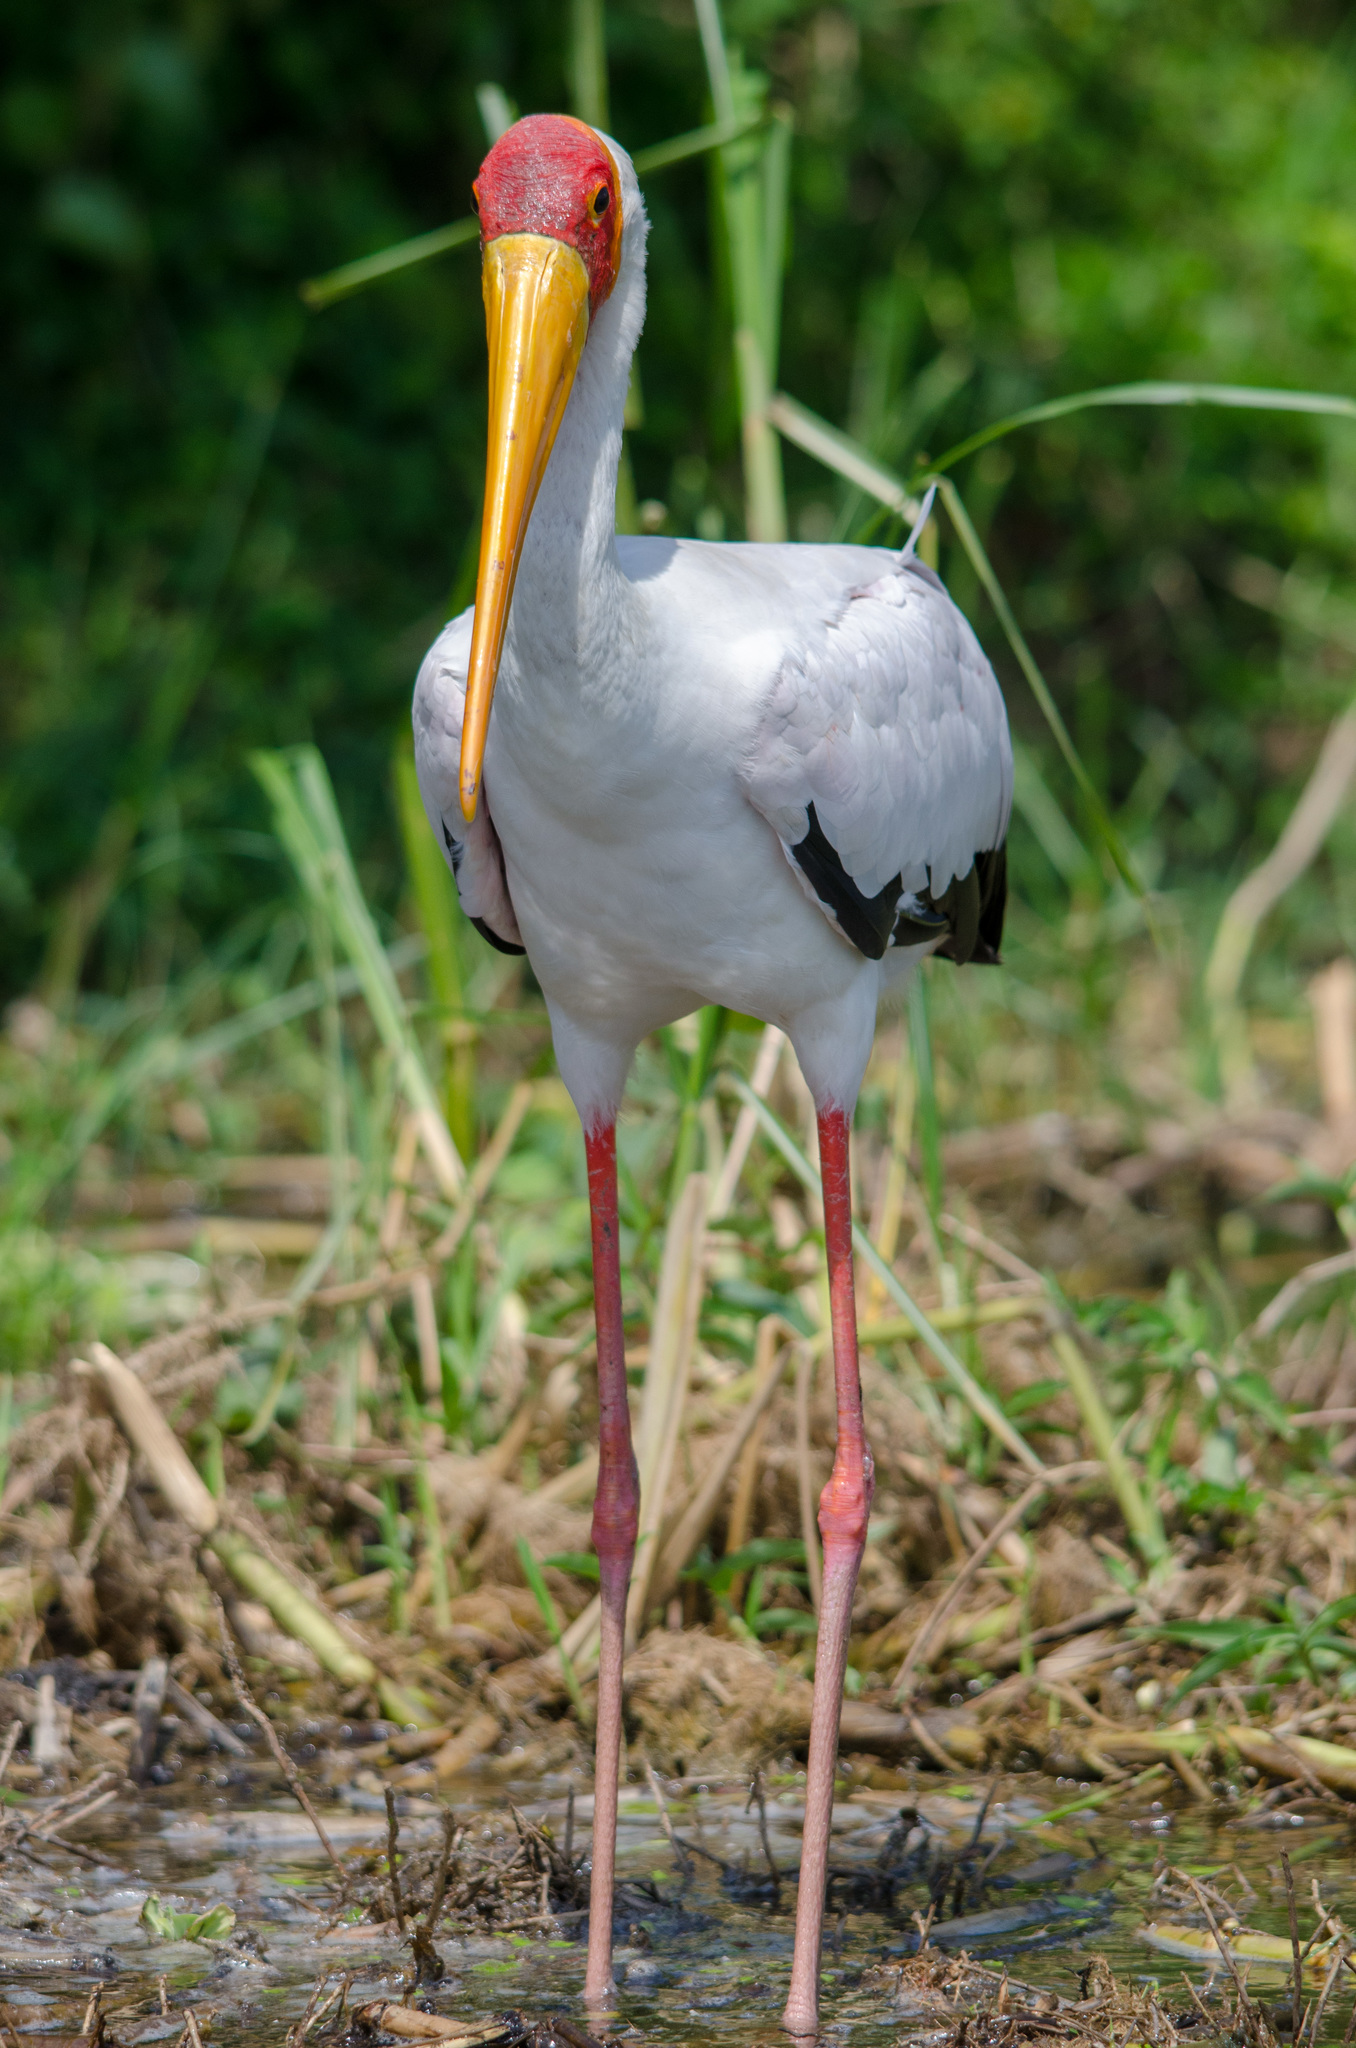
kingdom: Animalia
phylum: Chordata
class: Aves
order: Ciconiiformes
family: Ciconiidae
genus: Mycteria
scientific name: Mycteria ibis
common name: Yellow-billed stork
